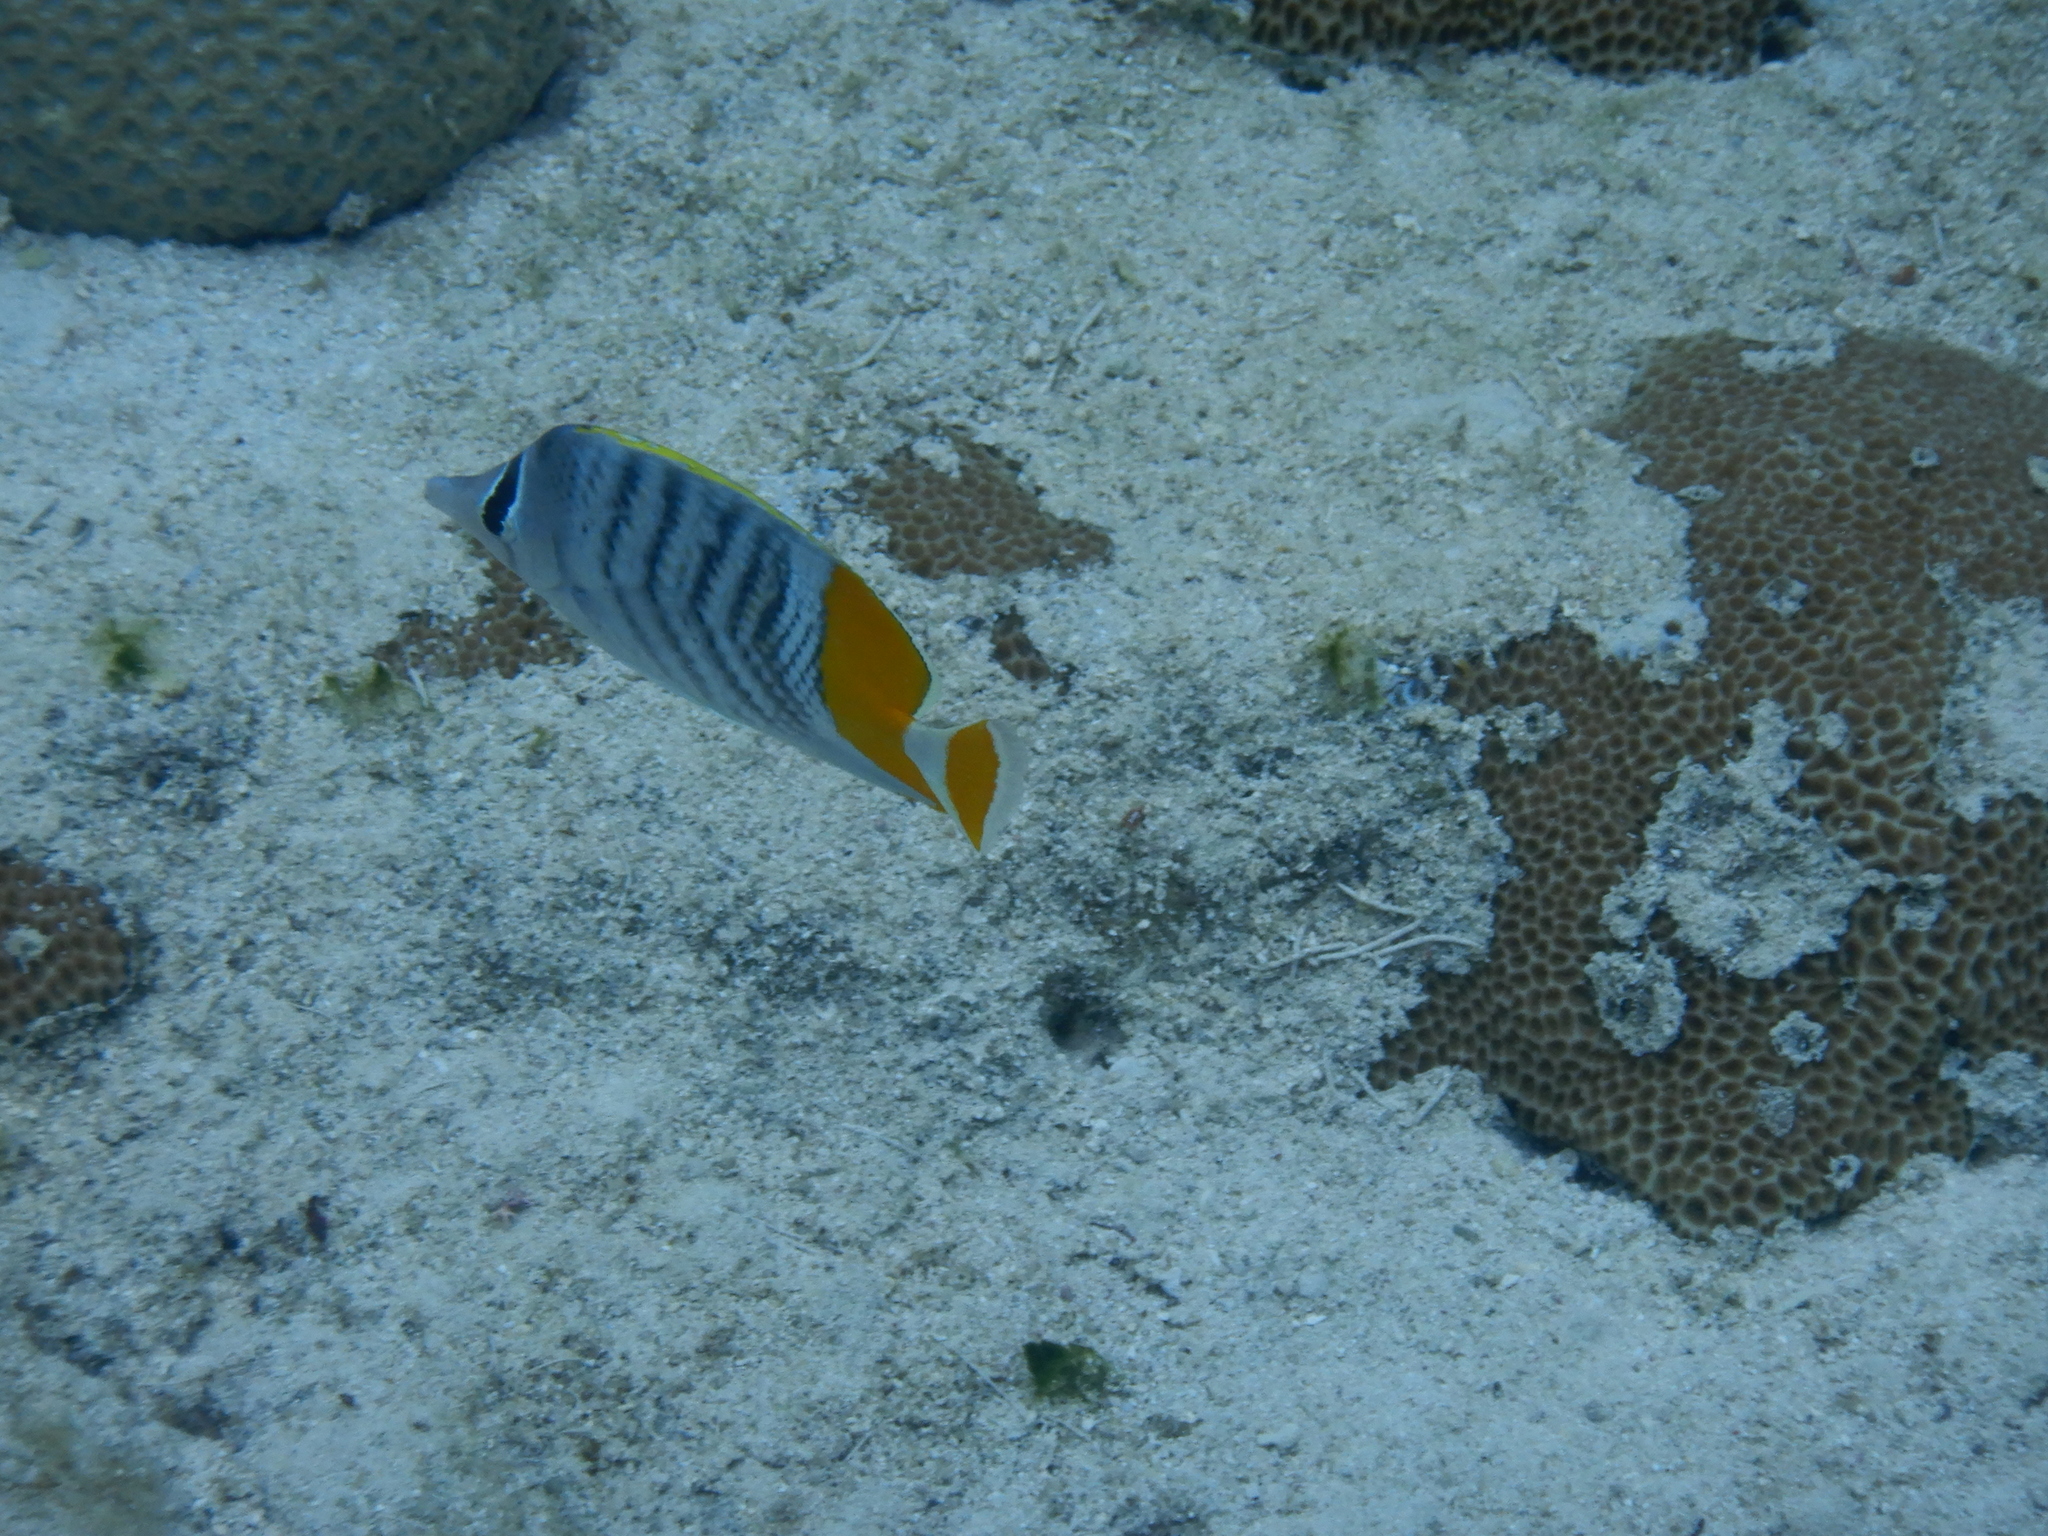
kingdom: Animalia
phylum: Chordata
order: Perciformes
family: Chaetodontidae
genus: Chaetodon
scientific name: Chaetodon mertensii
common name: Merten's butterflyfish
